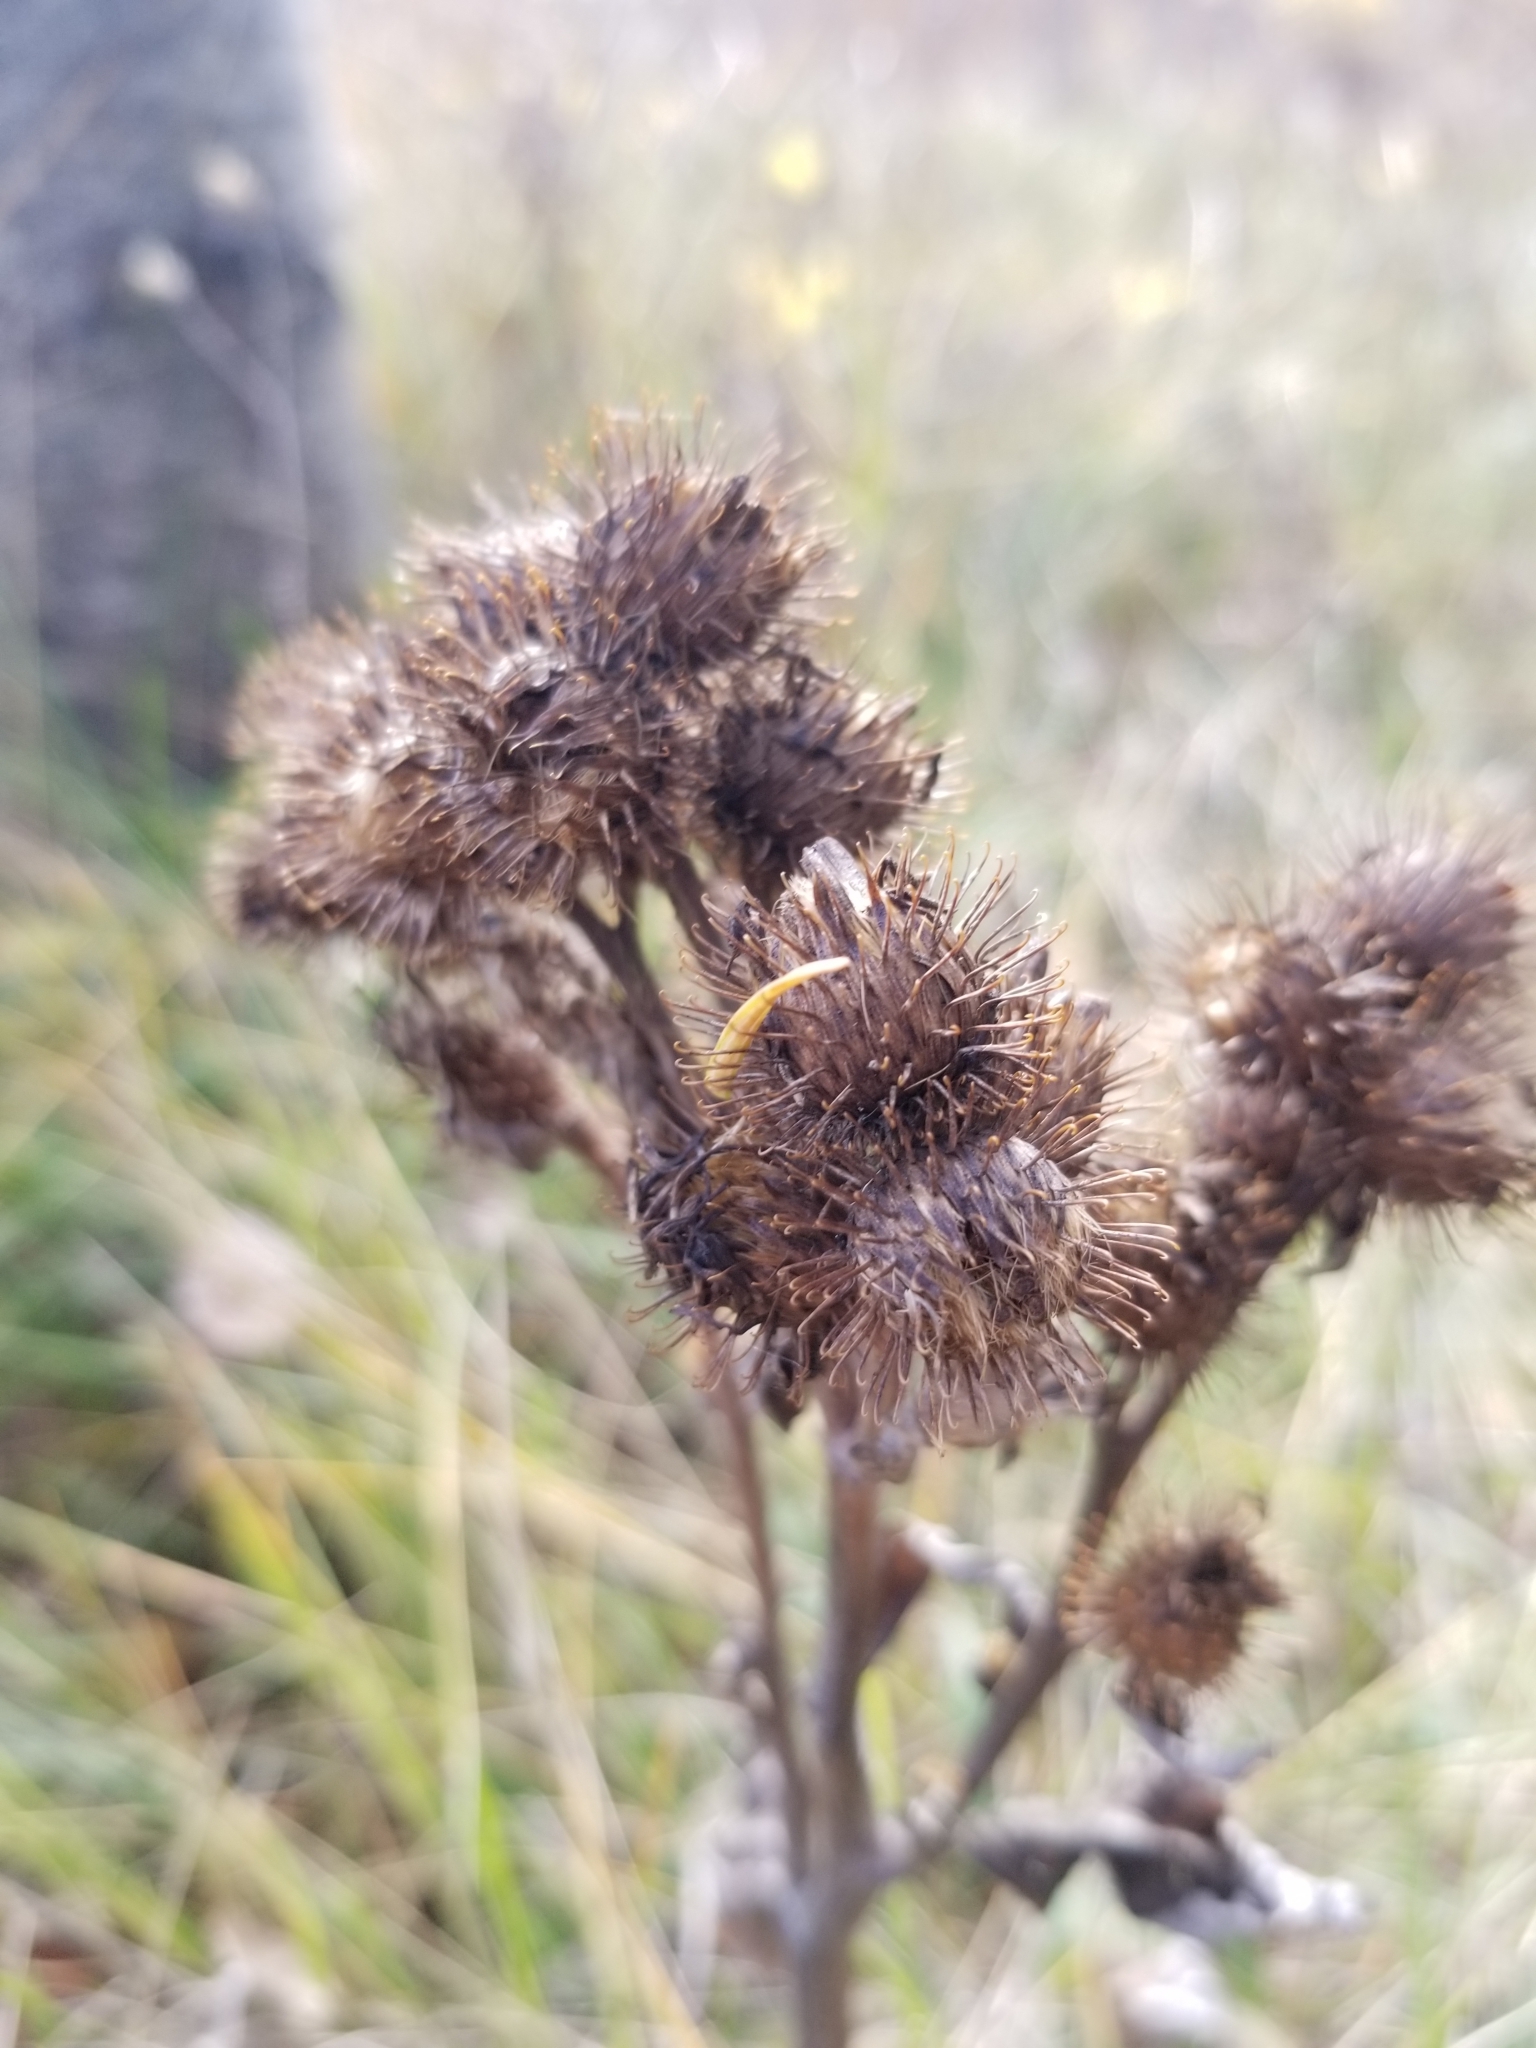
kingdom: Plantae
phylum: Tracheophyta
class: Magnoliopsida
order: Asterales
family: Asteraceae
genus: Arctium
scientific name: Arctium minus
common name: Lesser burdock
